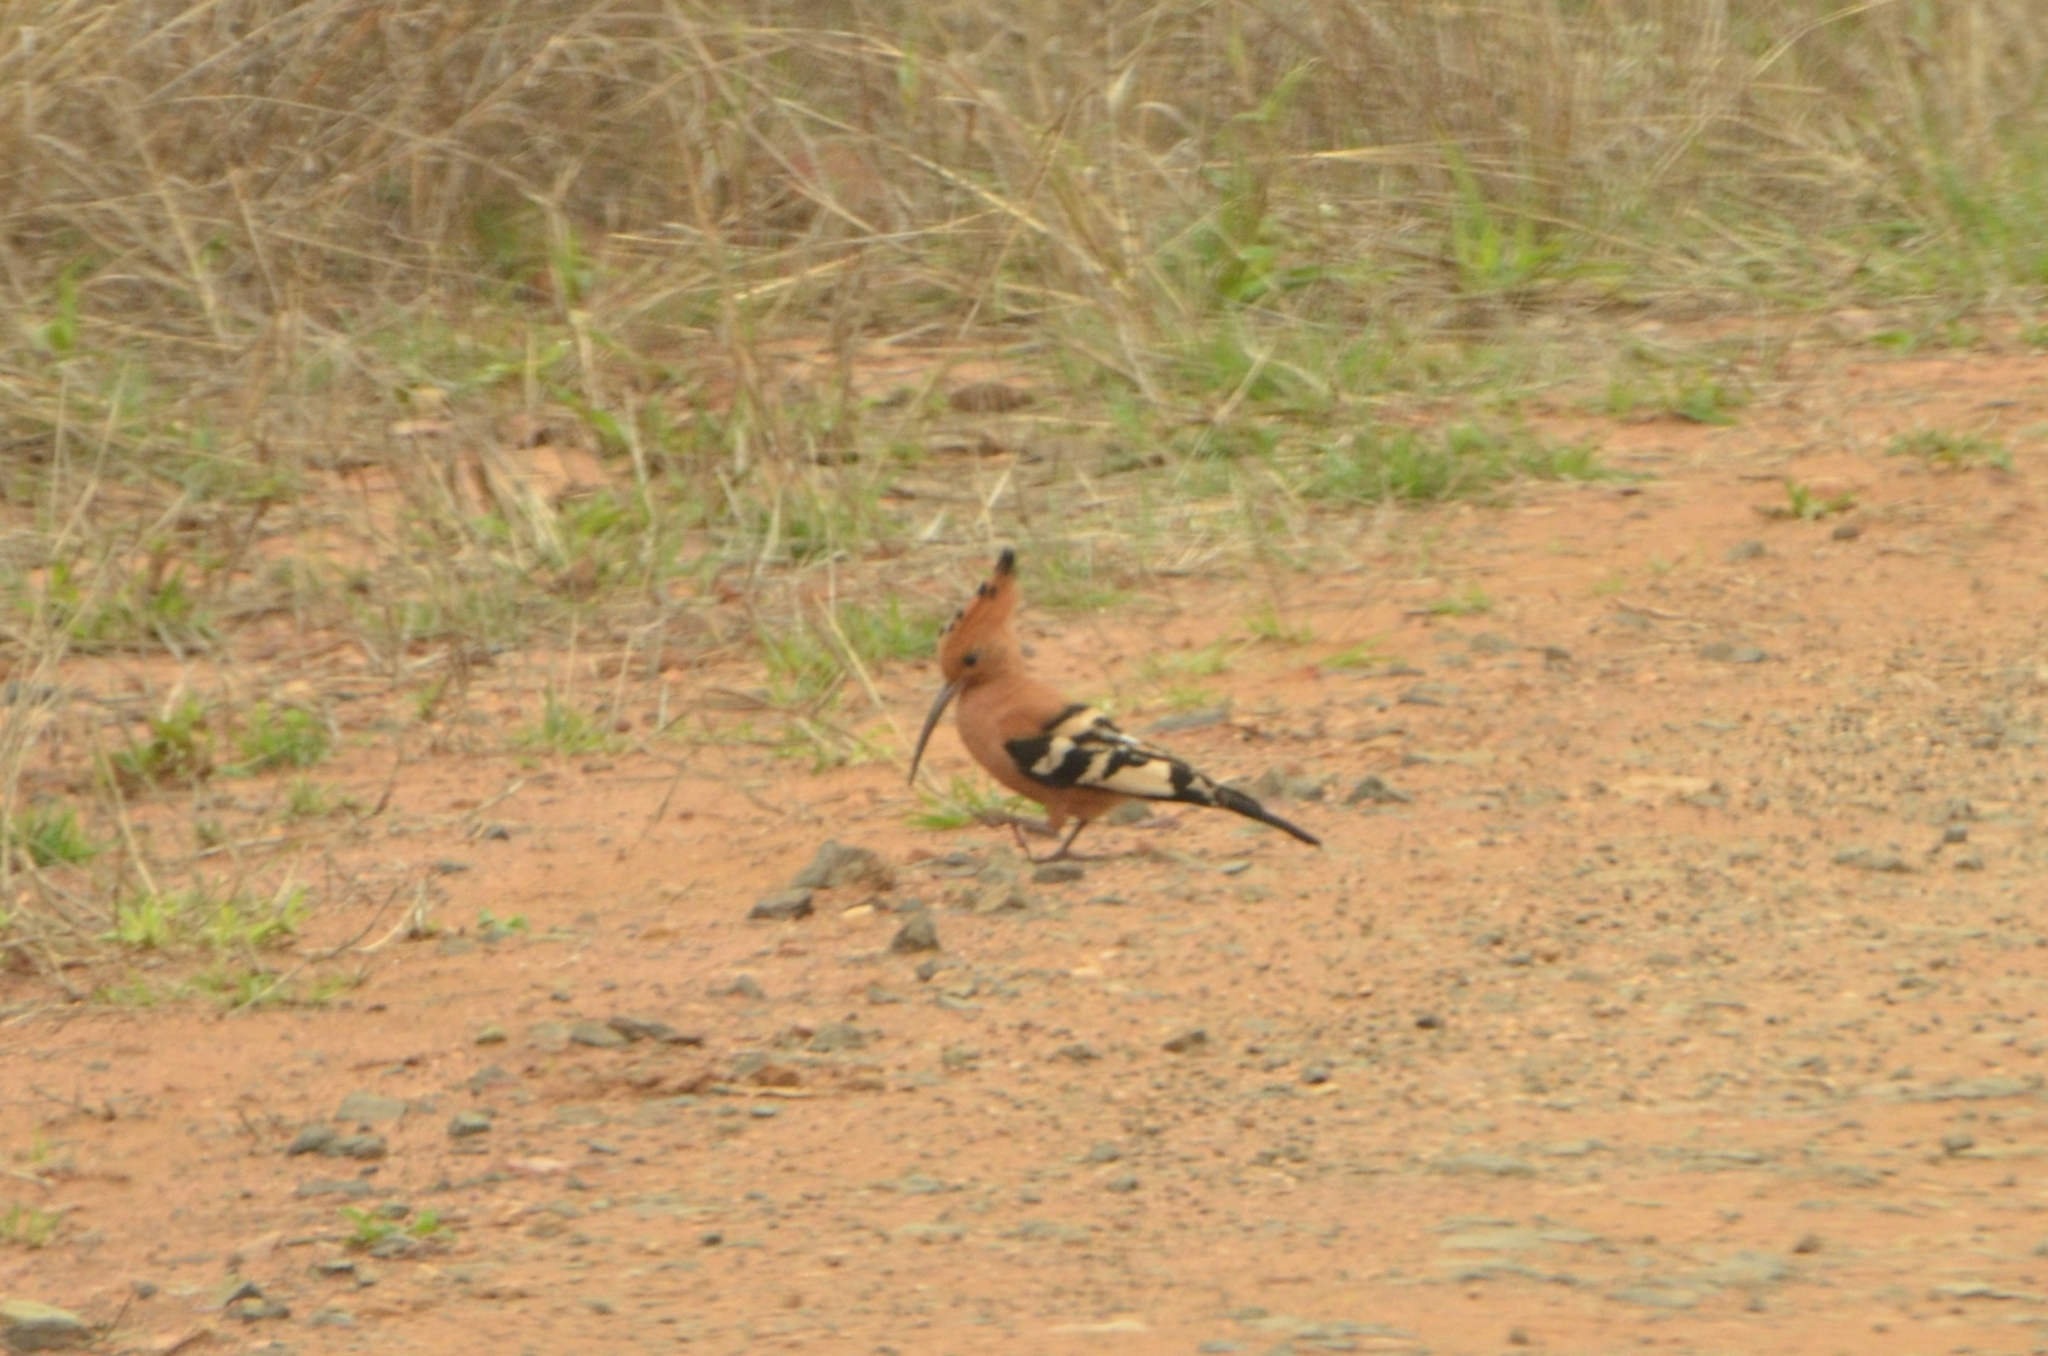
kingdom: Animalia
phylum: Chordata
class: Aves
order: Bucerotiformes
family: Upupidae
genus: Upupa
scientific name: Upupa africana
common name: African hoopoe
